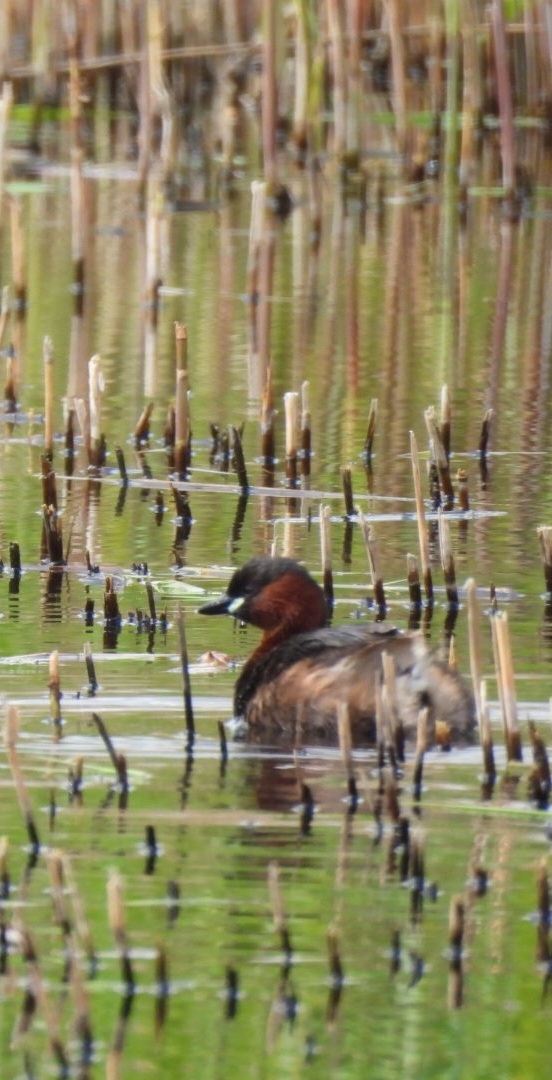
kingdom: Animalia
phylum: Chordata
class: Aves
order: Podicipediformes
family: Podicipedidae
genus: Tachybaptus
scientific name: Tachybaptus ruficollis
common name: Little grebe
